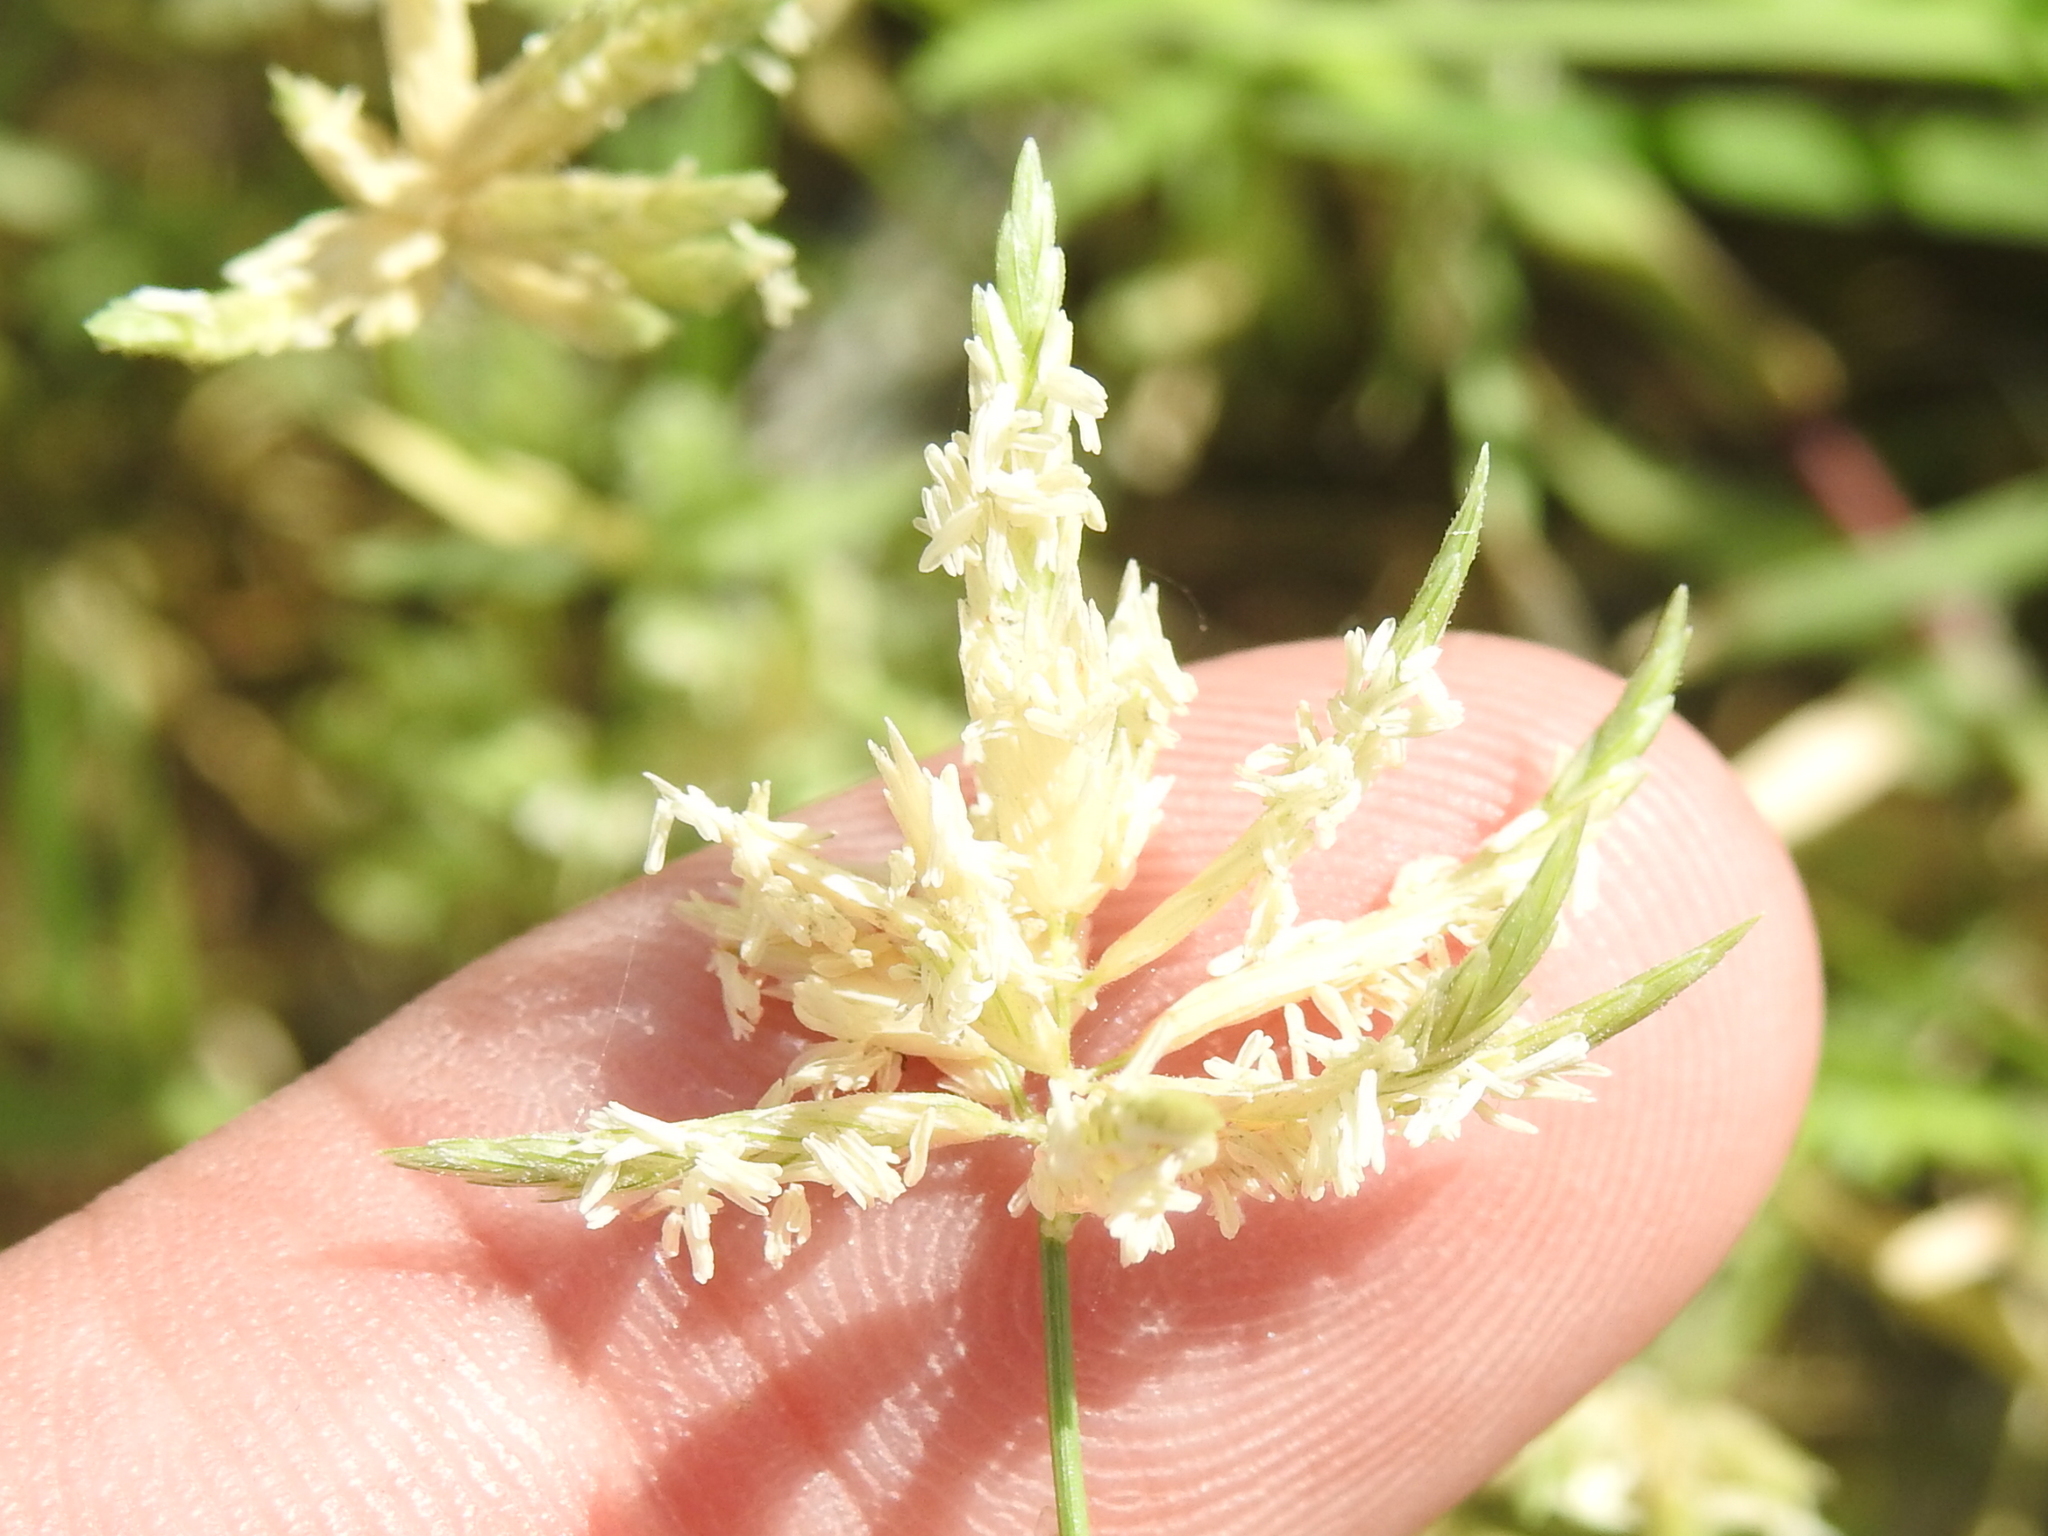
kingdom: Plantae
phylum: Tracheophyta
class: Liliopsida
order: Poales
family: Poaceae
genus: Eragrostis
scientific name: Eragrostis reptans
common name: Creeping love grass
